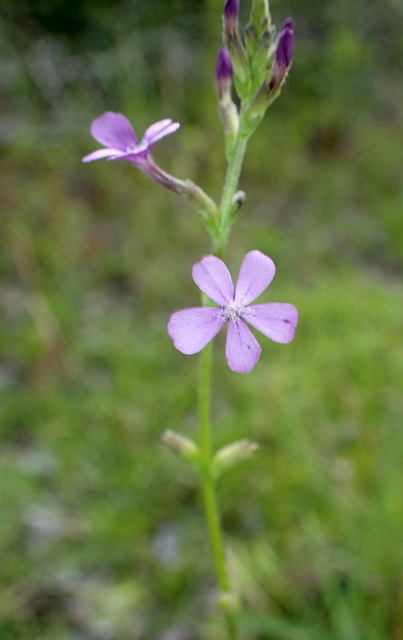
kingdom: Plantae
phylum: Tracheophyta
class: Magnoliopsida
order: Lamiales
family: Orobanchaceae
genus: Buchnera
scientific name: Buchnera floridana
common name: Florida bluehearts
